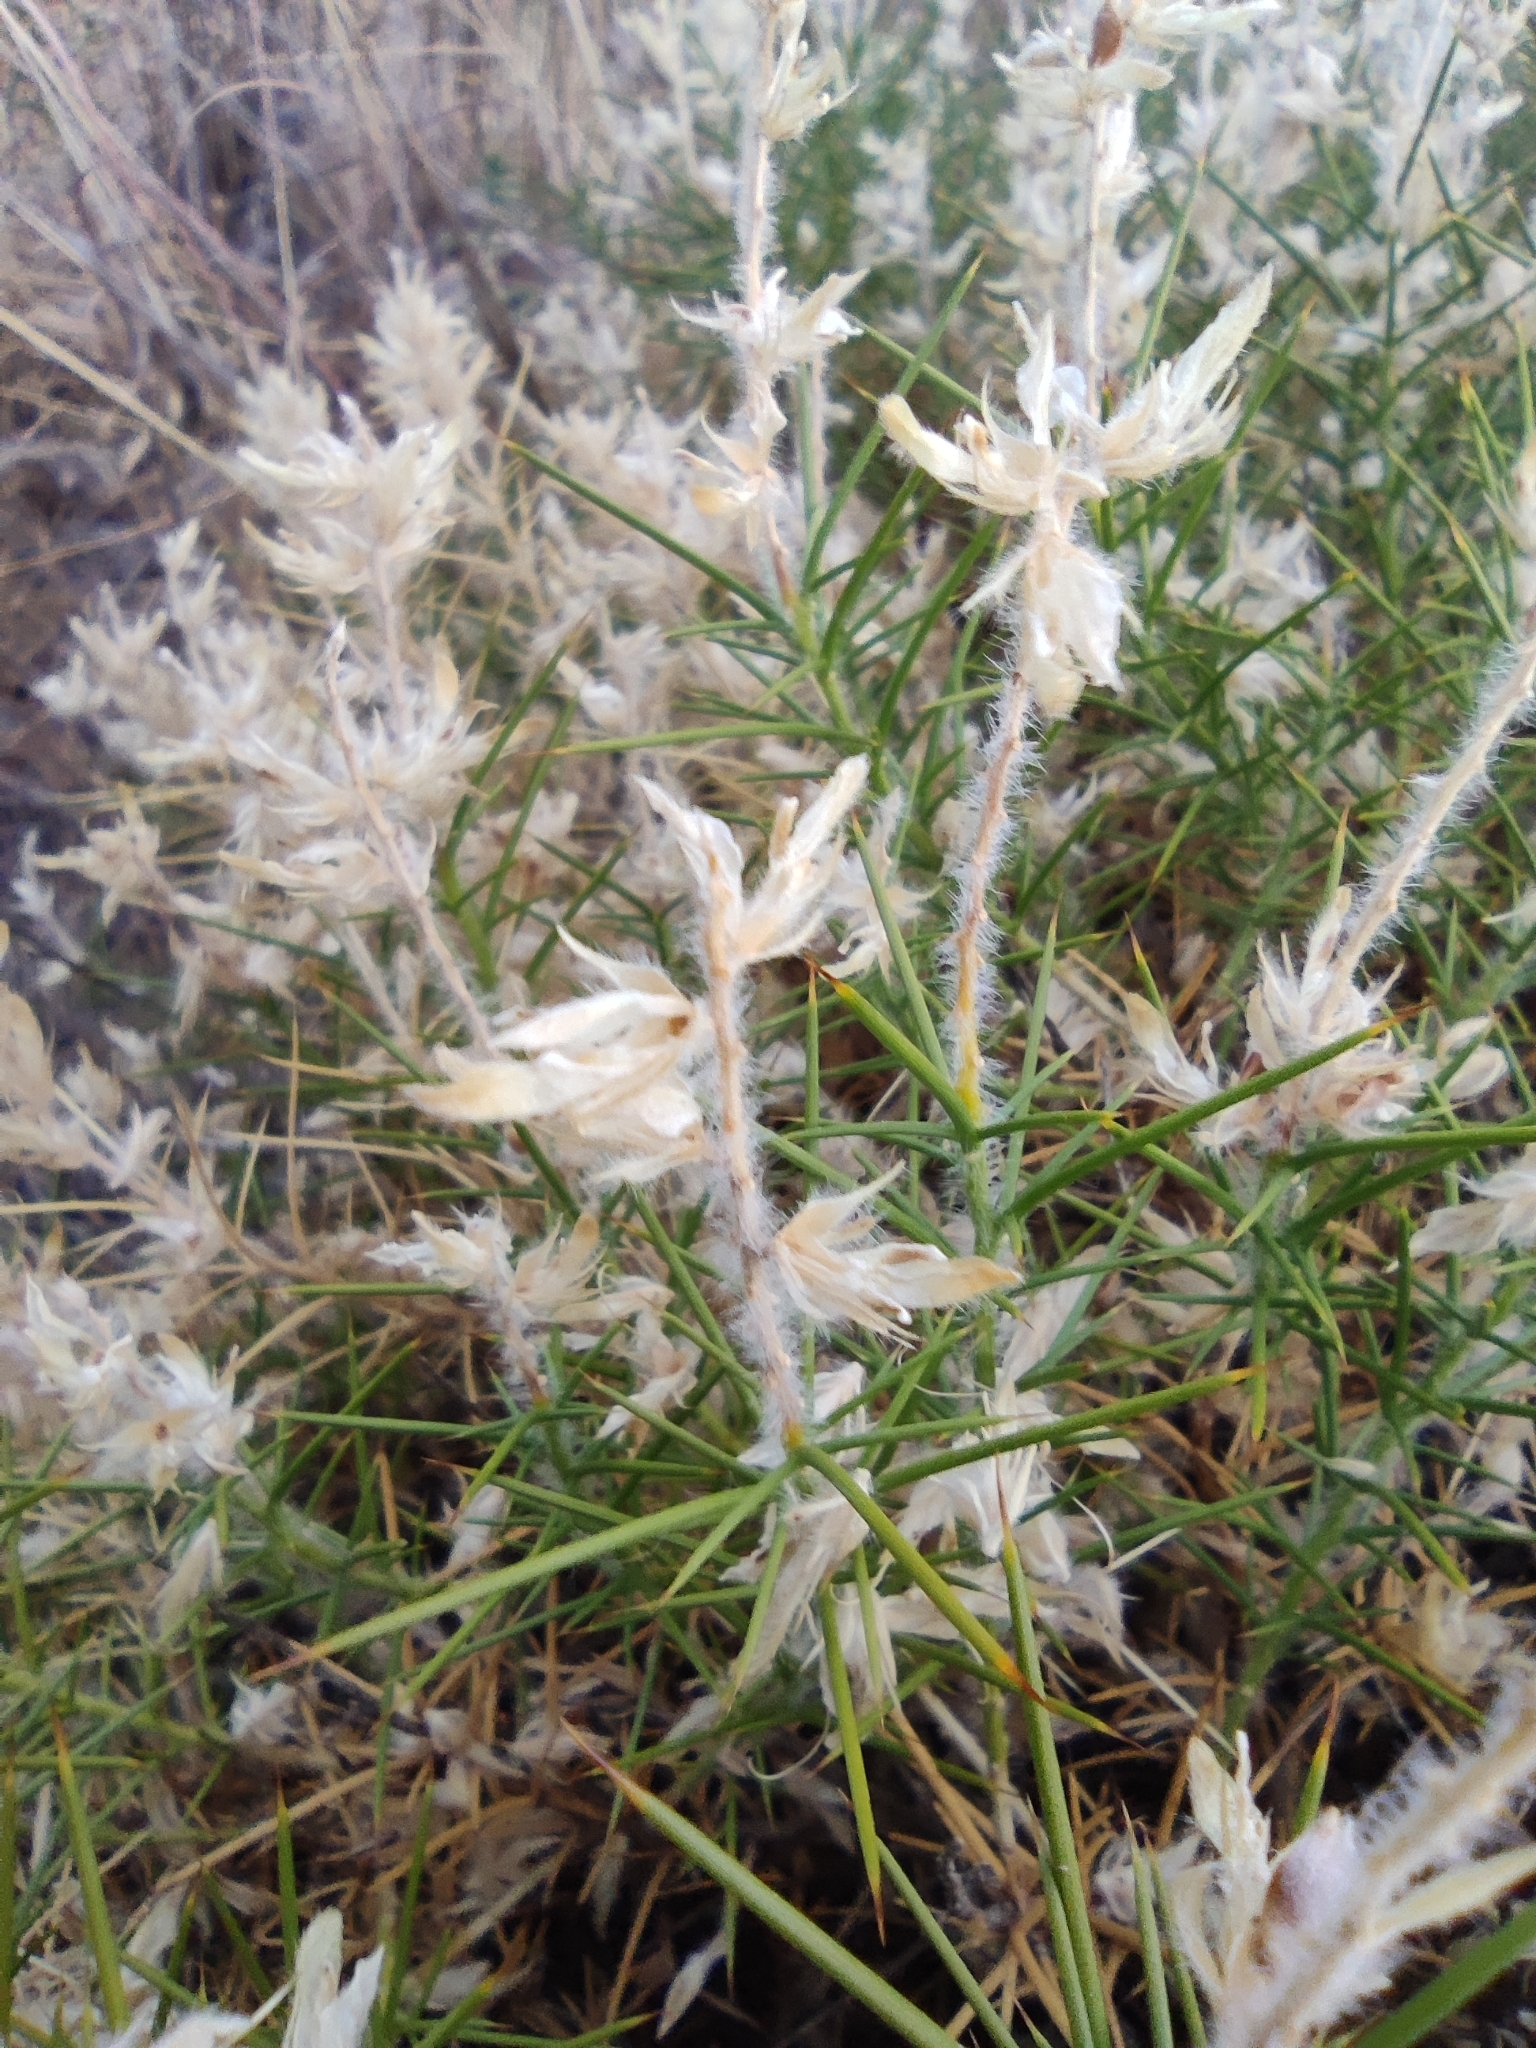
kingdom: Plantae
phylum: Tracheophyta
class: Magnoliopsida
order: Fabales
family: Fabaceae
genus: Genista
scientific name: Genista hirsuta
